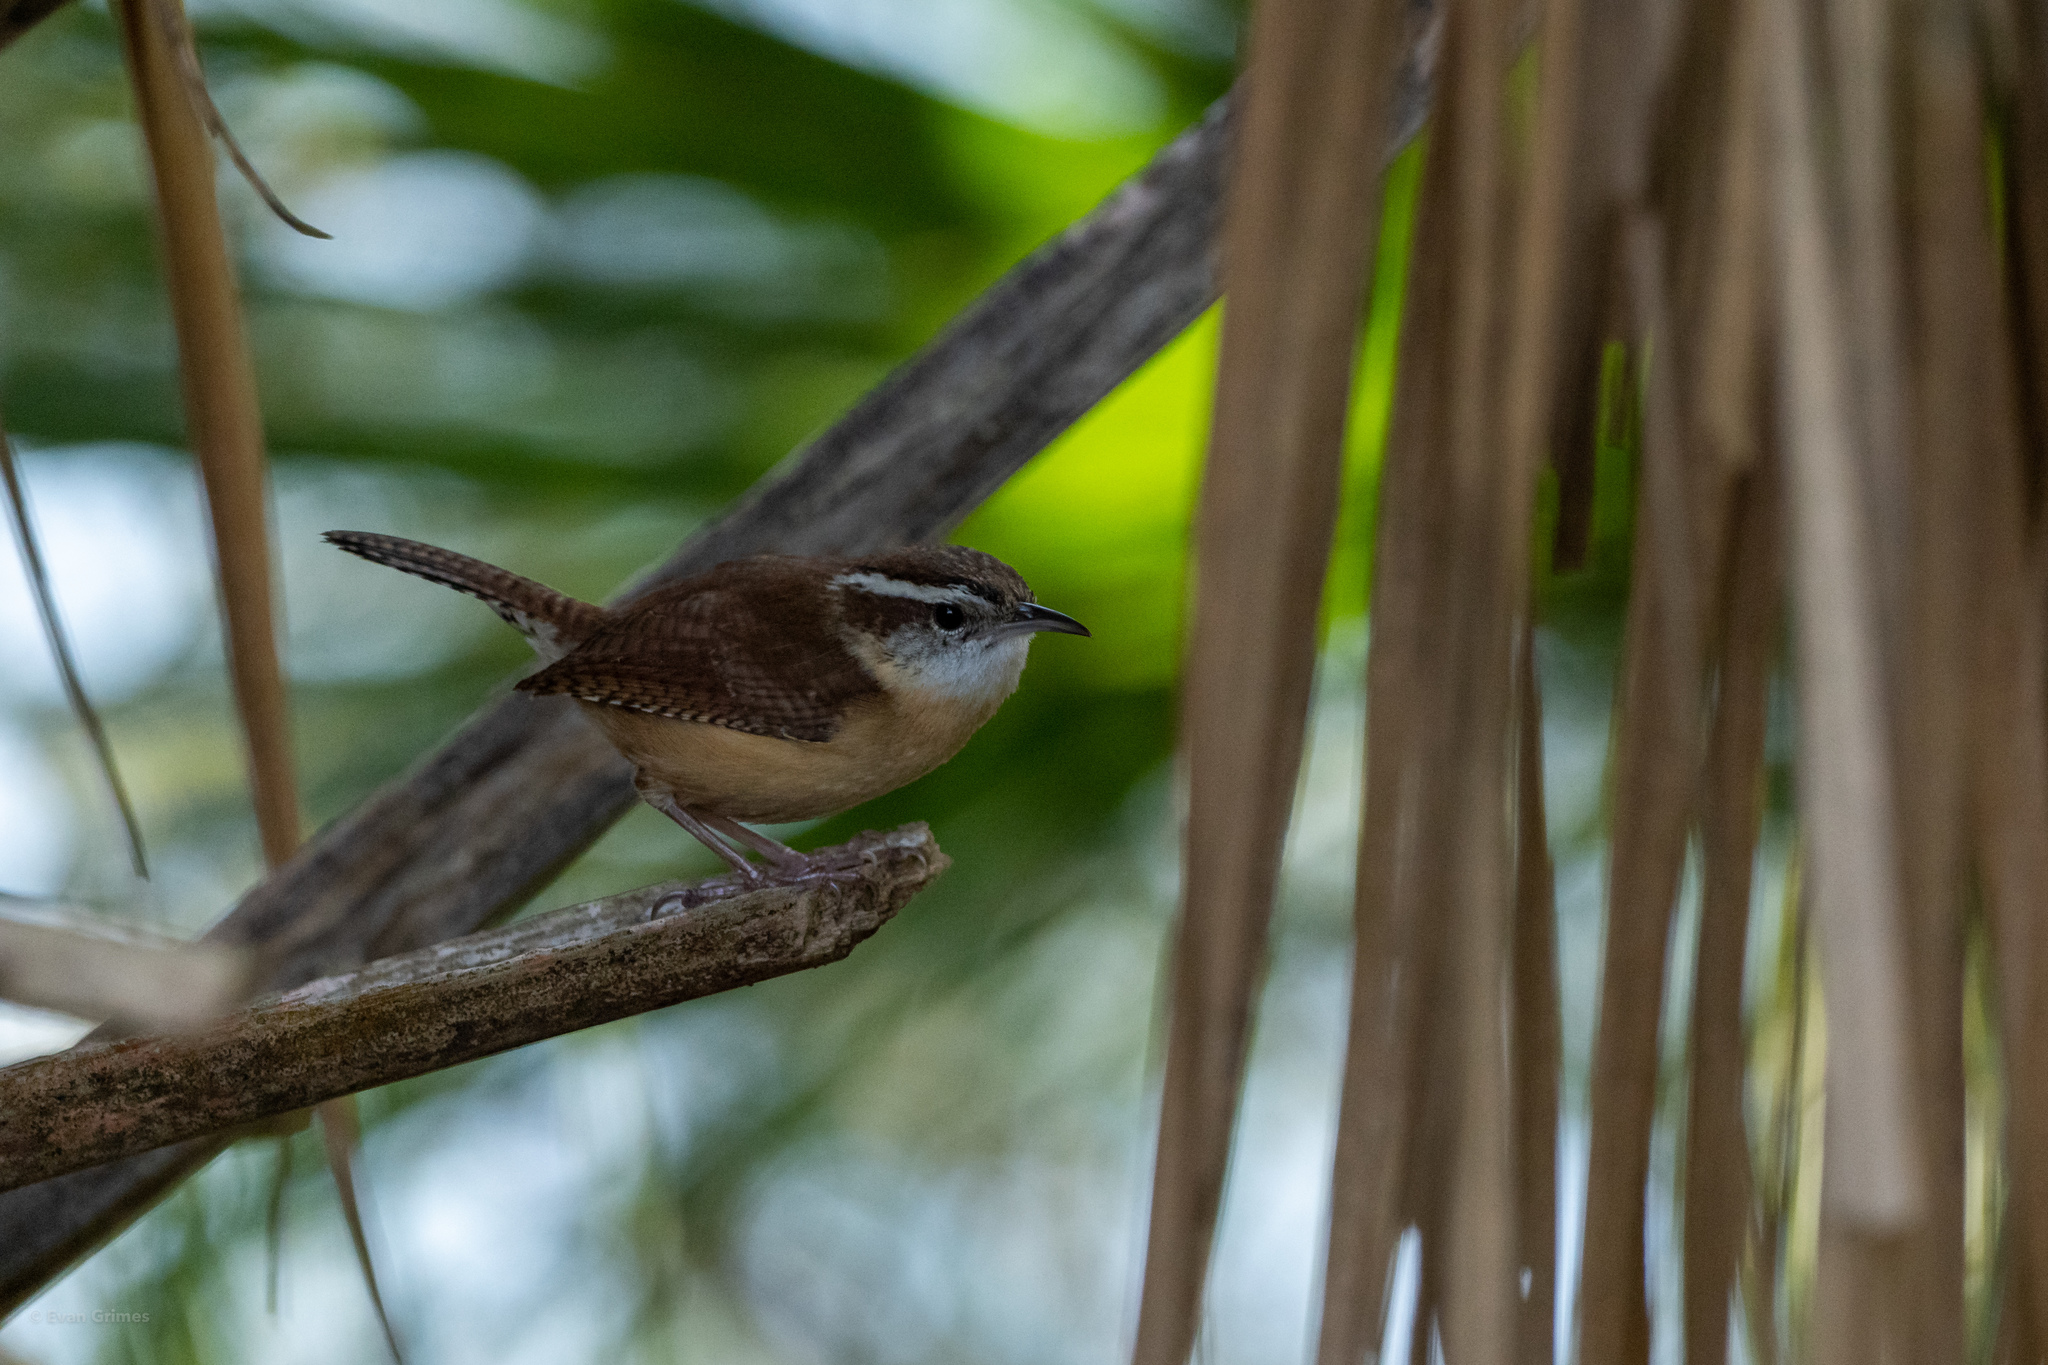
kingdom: Animalia
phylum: Chordata
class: Aves
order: Passeriformes
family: Troglodytidae
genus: Thryothorus
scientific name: Thryothorus ludovicianus
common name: Carolina wren
